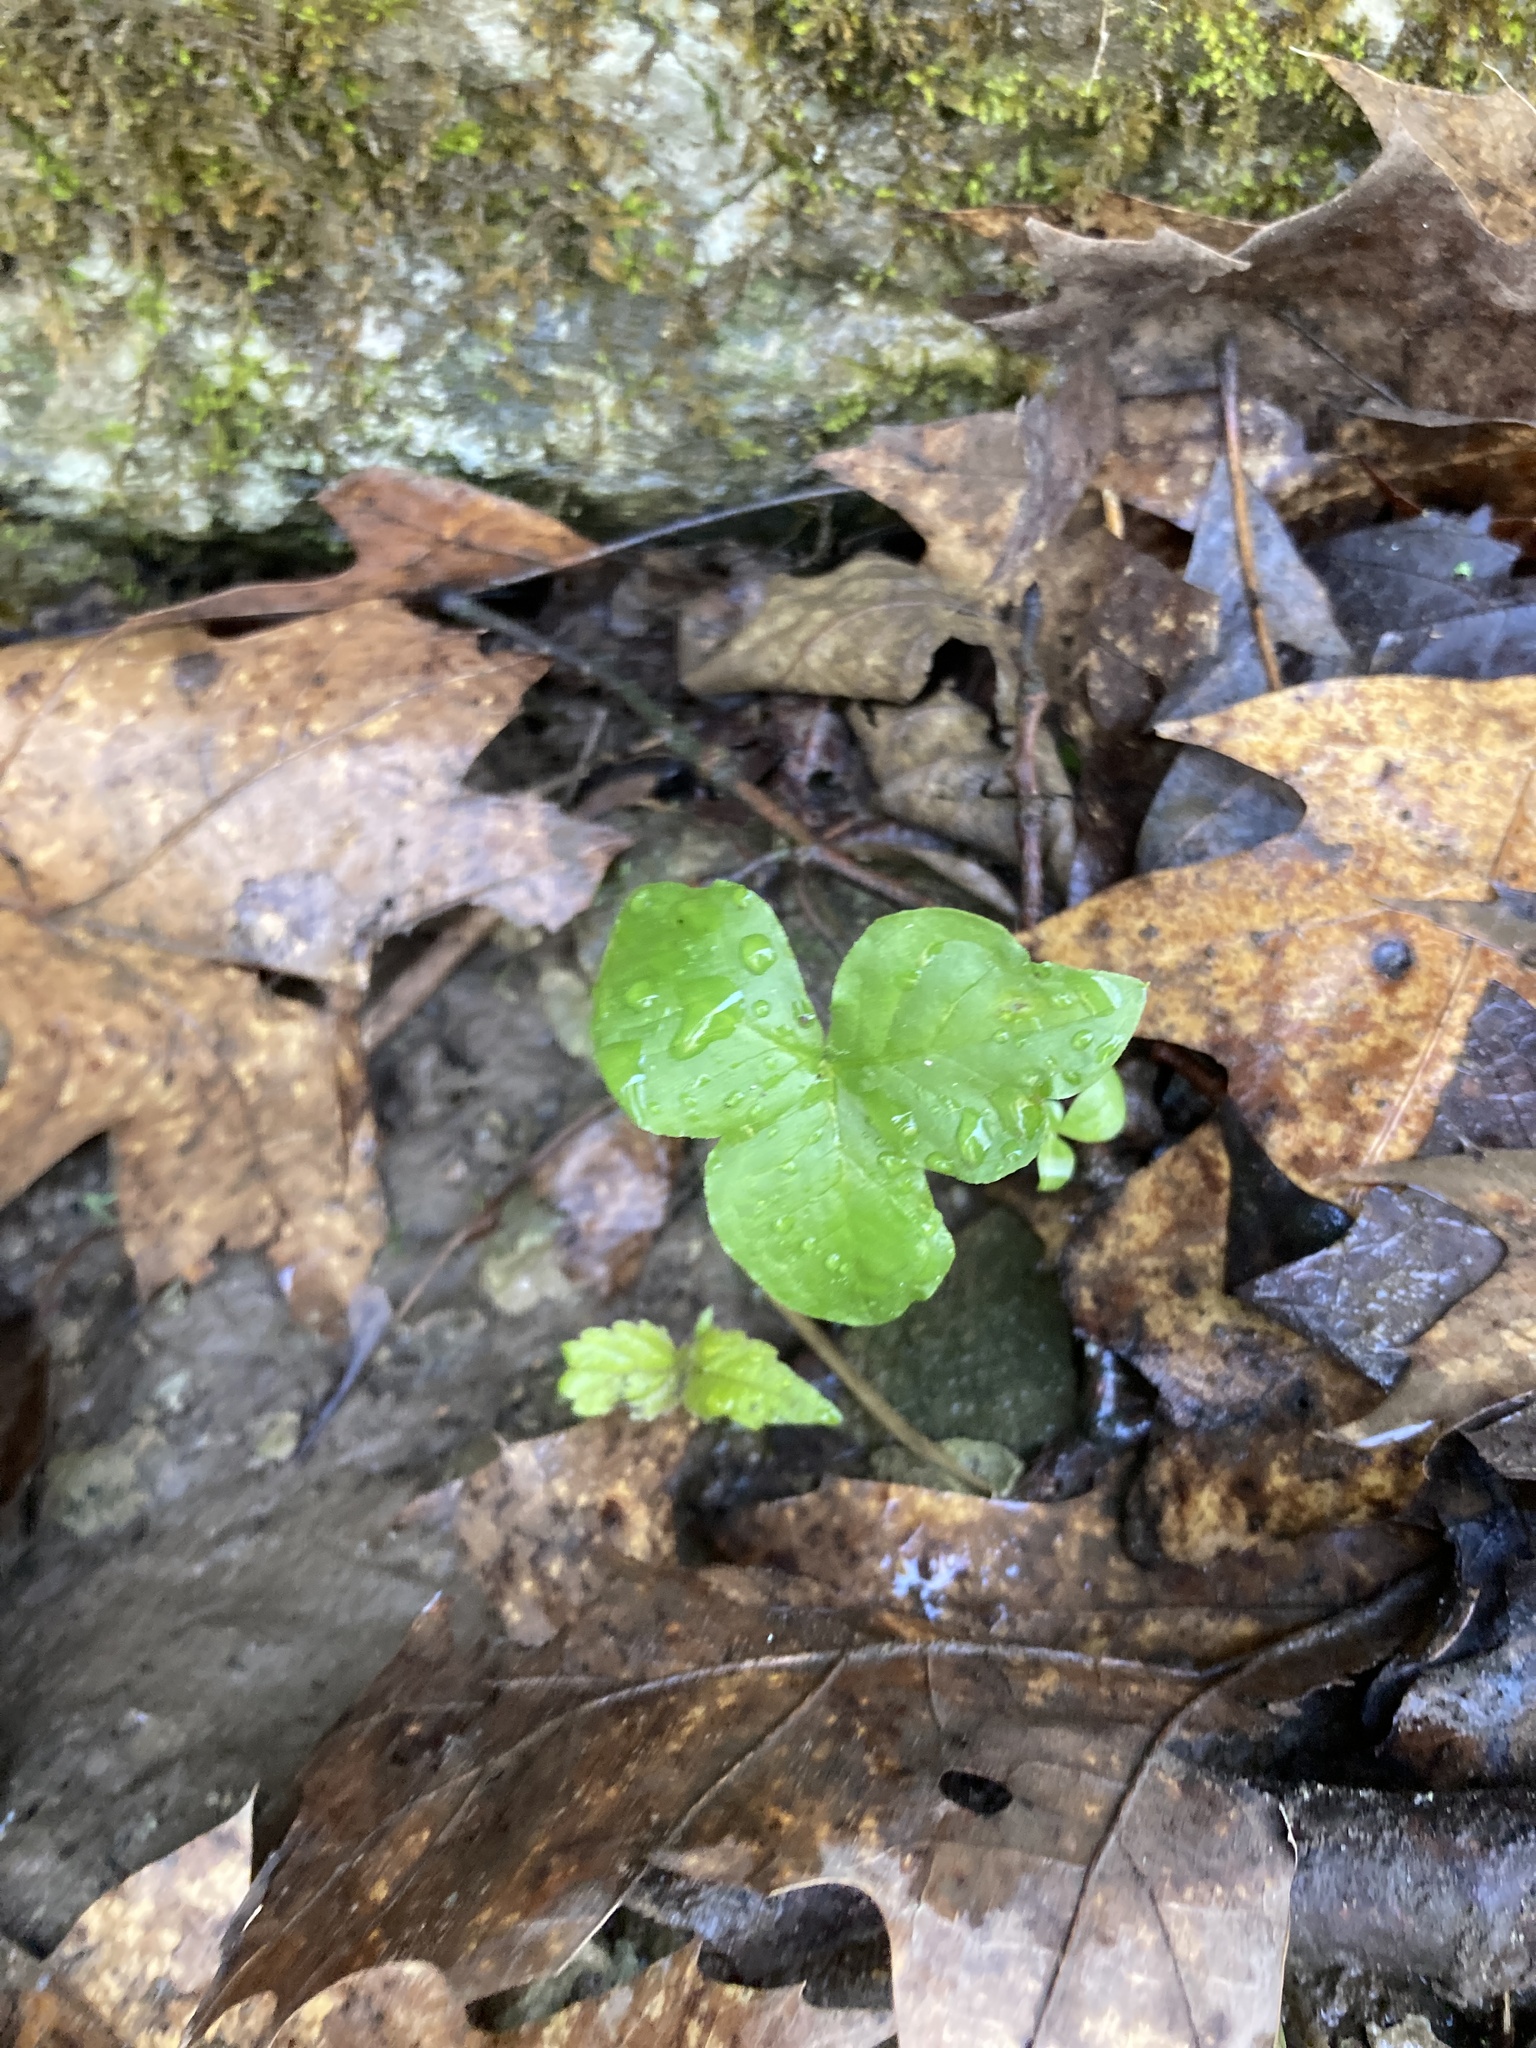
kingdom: Plantae
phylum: Tracheophyta
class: Magnoliopsida
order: Ranunculales
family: Ranunculaceae
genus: Hepatica
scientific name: Hepatica acutiloba
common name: Sharp-lobed hepatica
